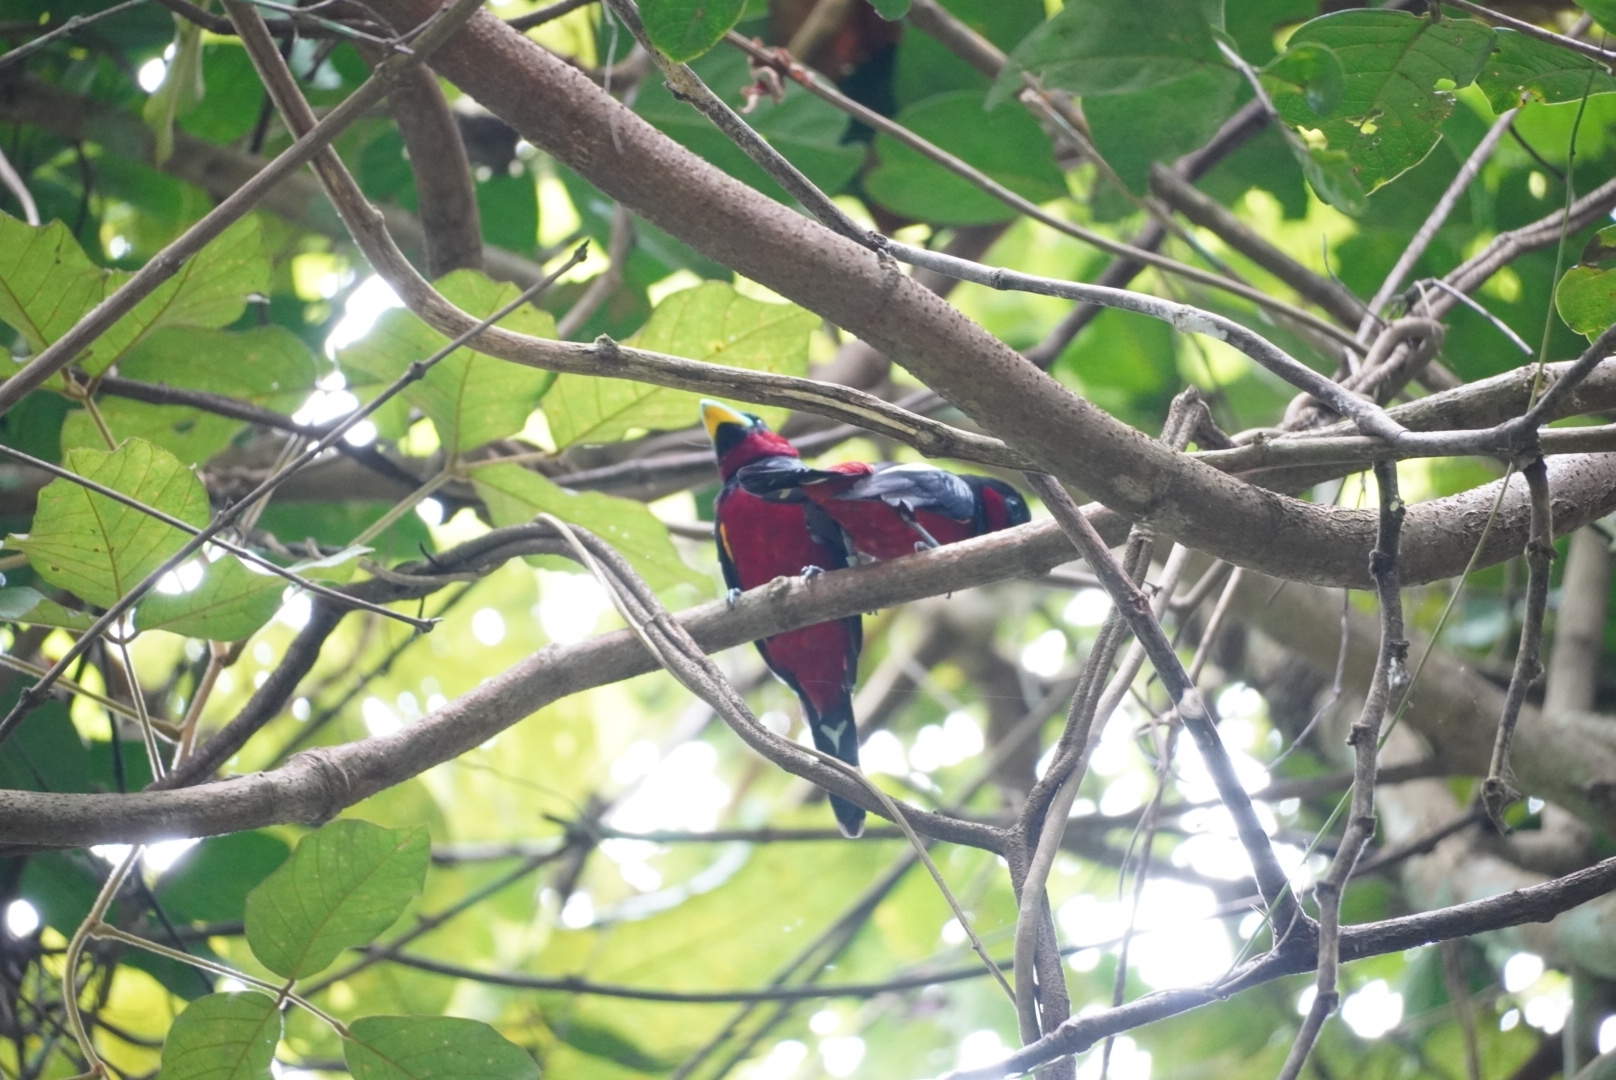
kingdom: Animalia
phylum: Chordata
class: Aves
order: Passeriformes
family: Eurylaimidae
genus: Cymbirhynchus
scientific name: Cymbirhynchus macrorhynchos
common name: Black-and-red broadbill
